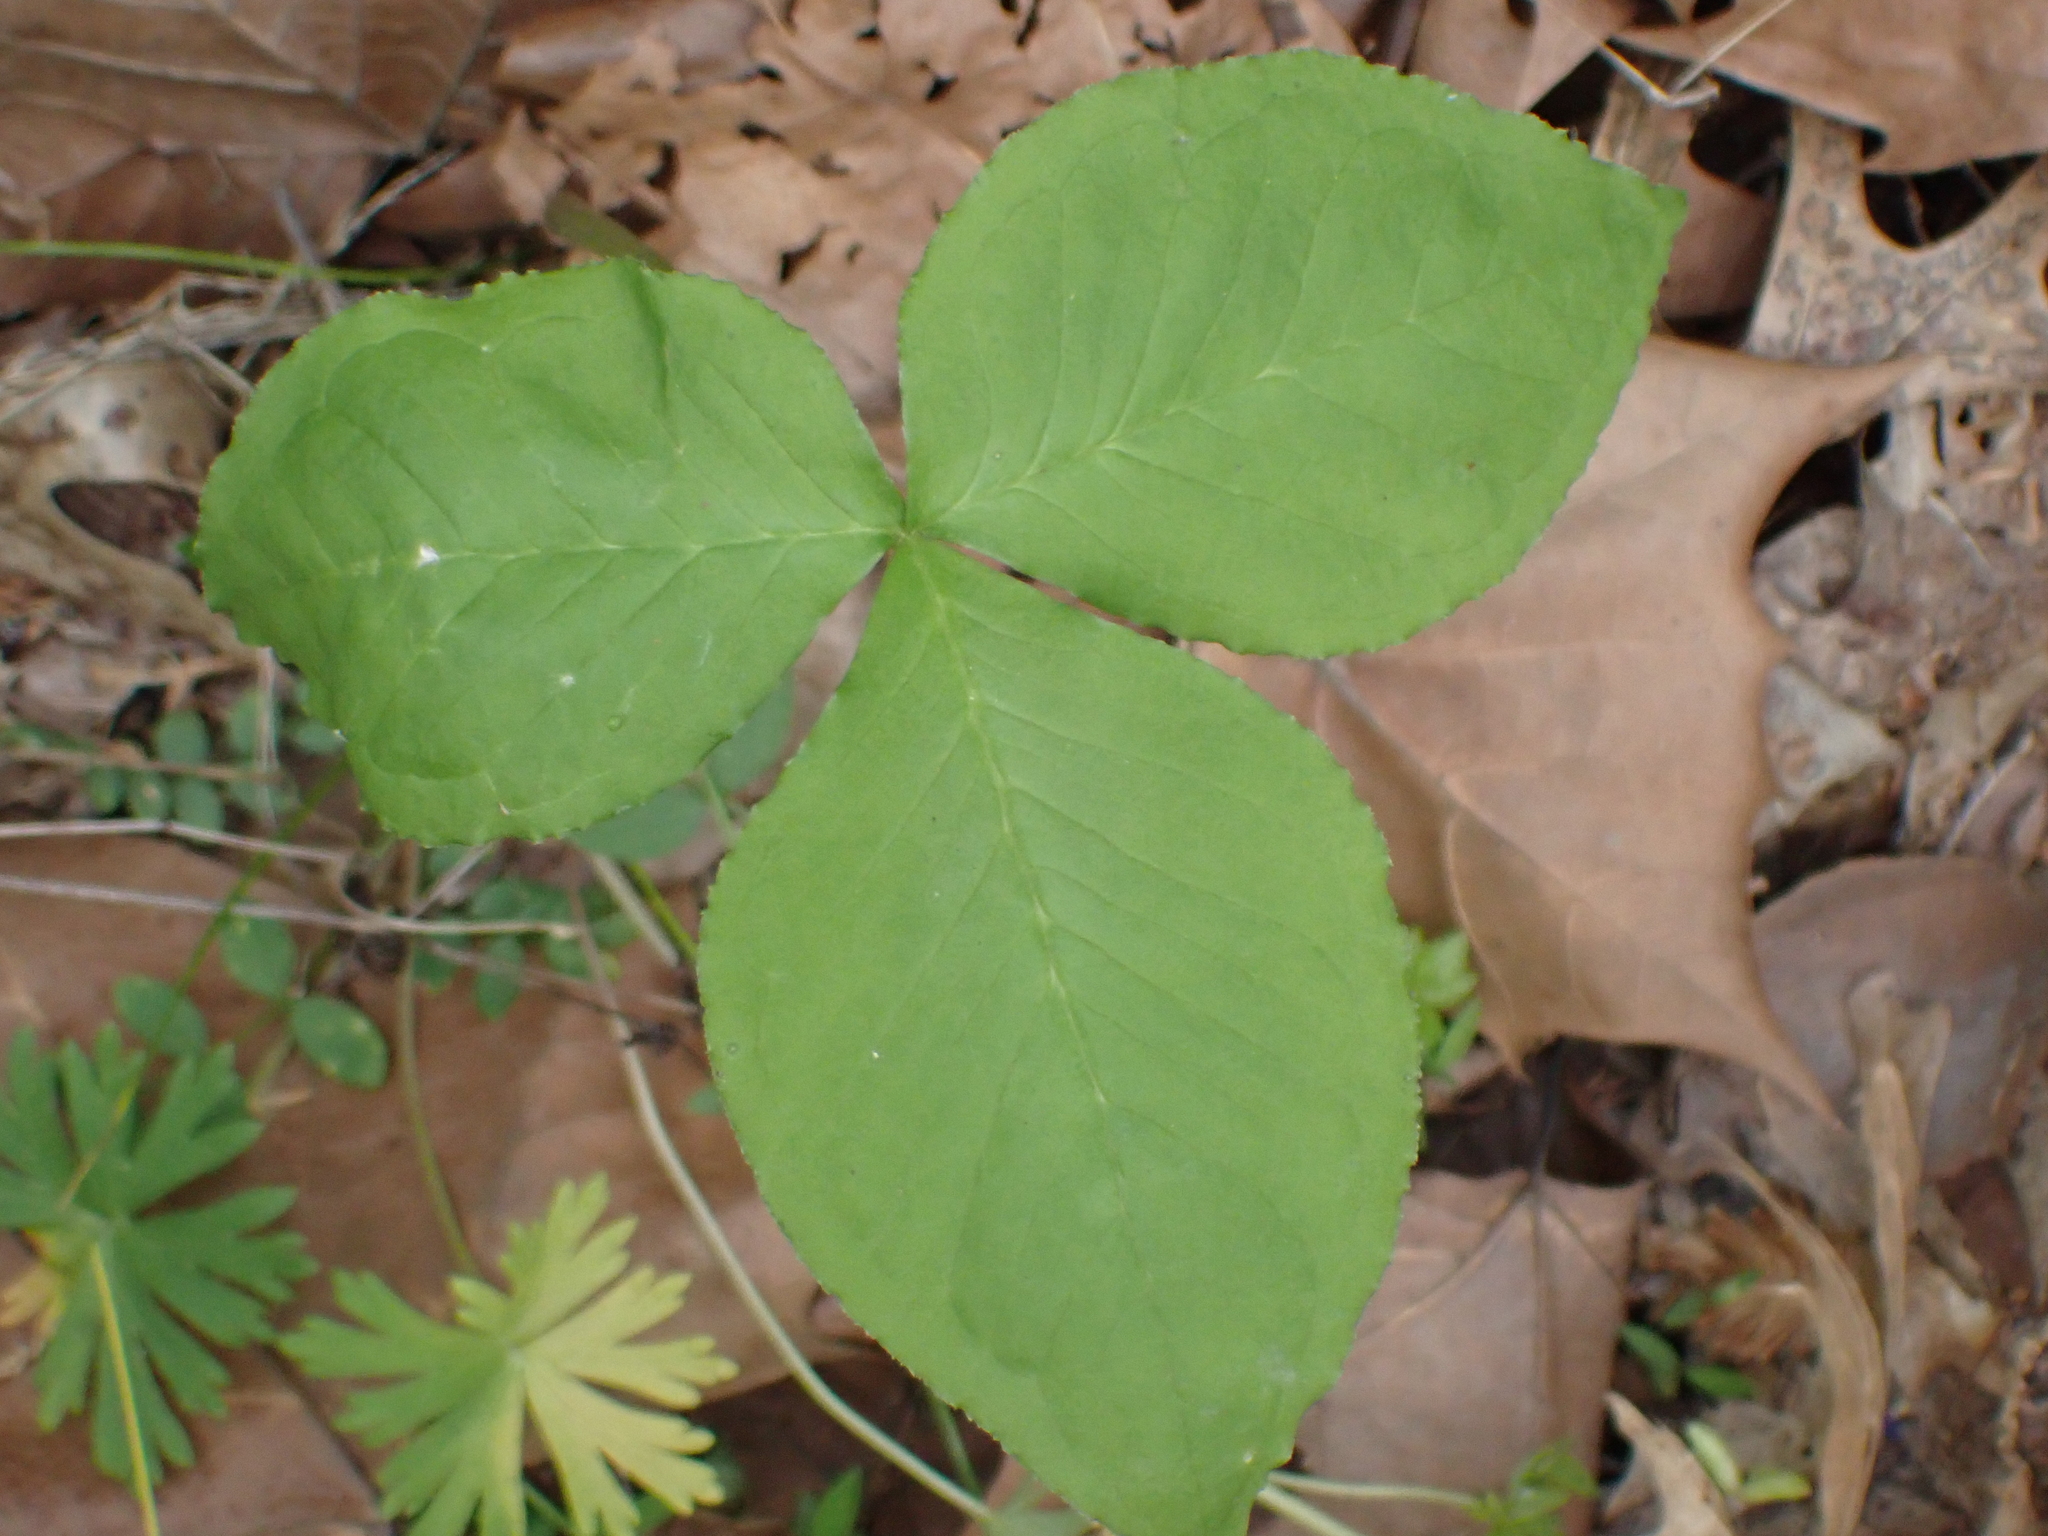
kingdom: Plantae
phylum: Tracheophyta
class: Liliopsida
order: Alismatales
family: Araceae
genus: Arisaema
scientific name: Arisaema triphyllum
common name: Jack-in-the-pulpit
